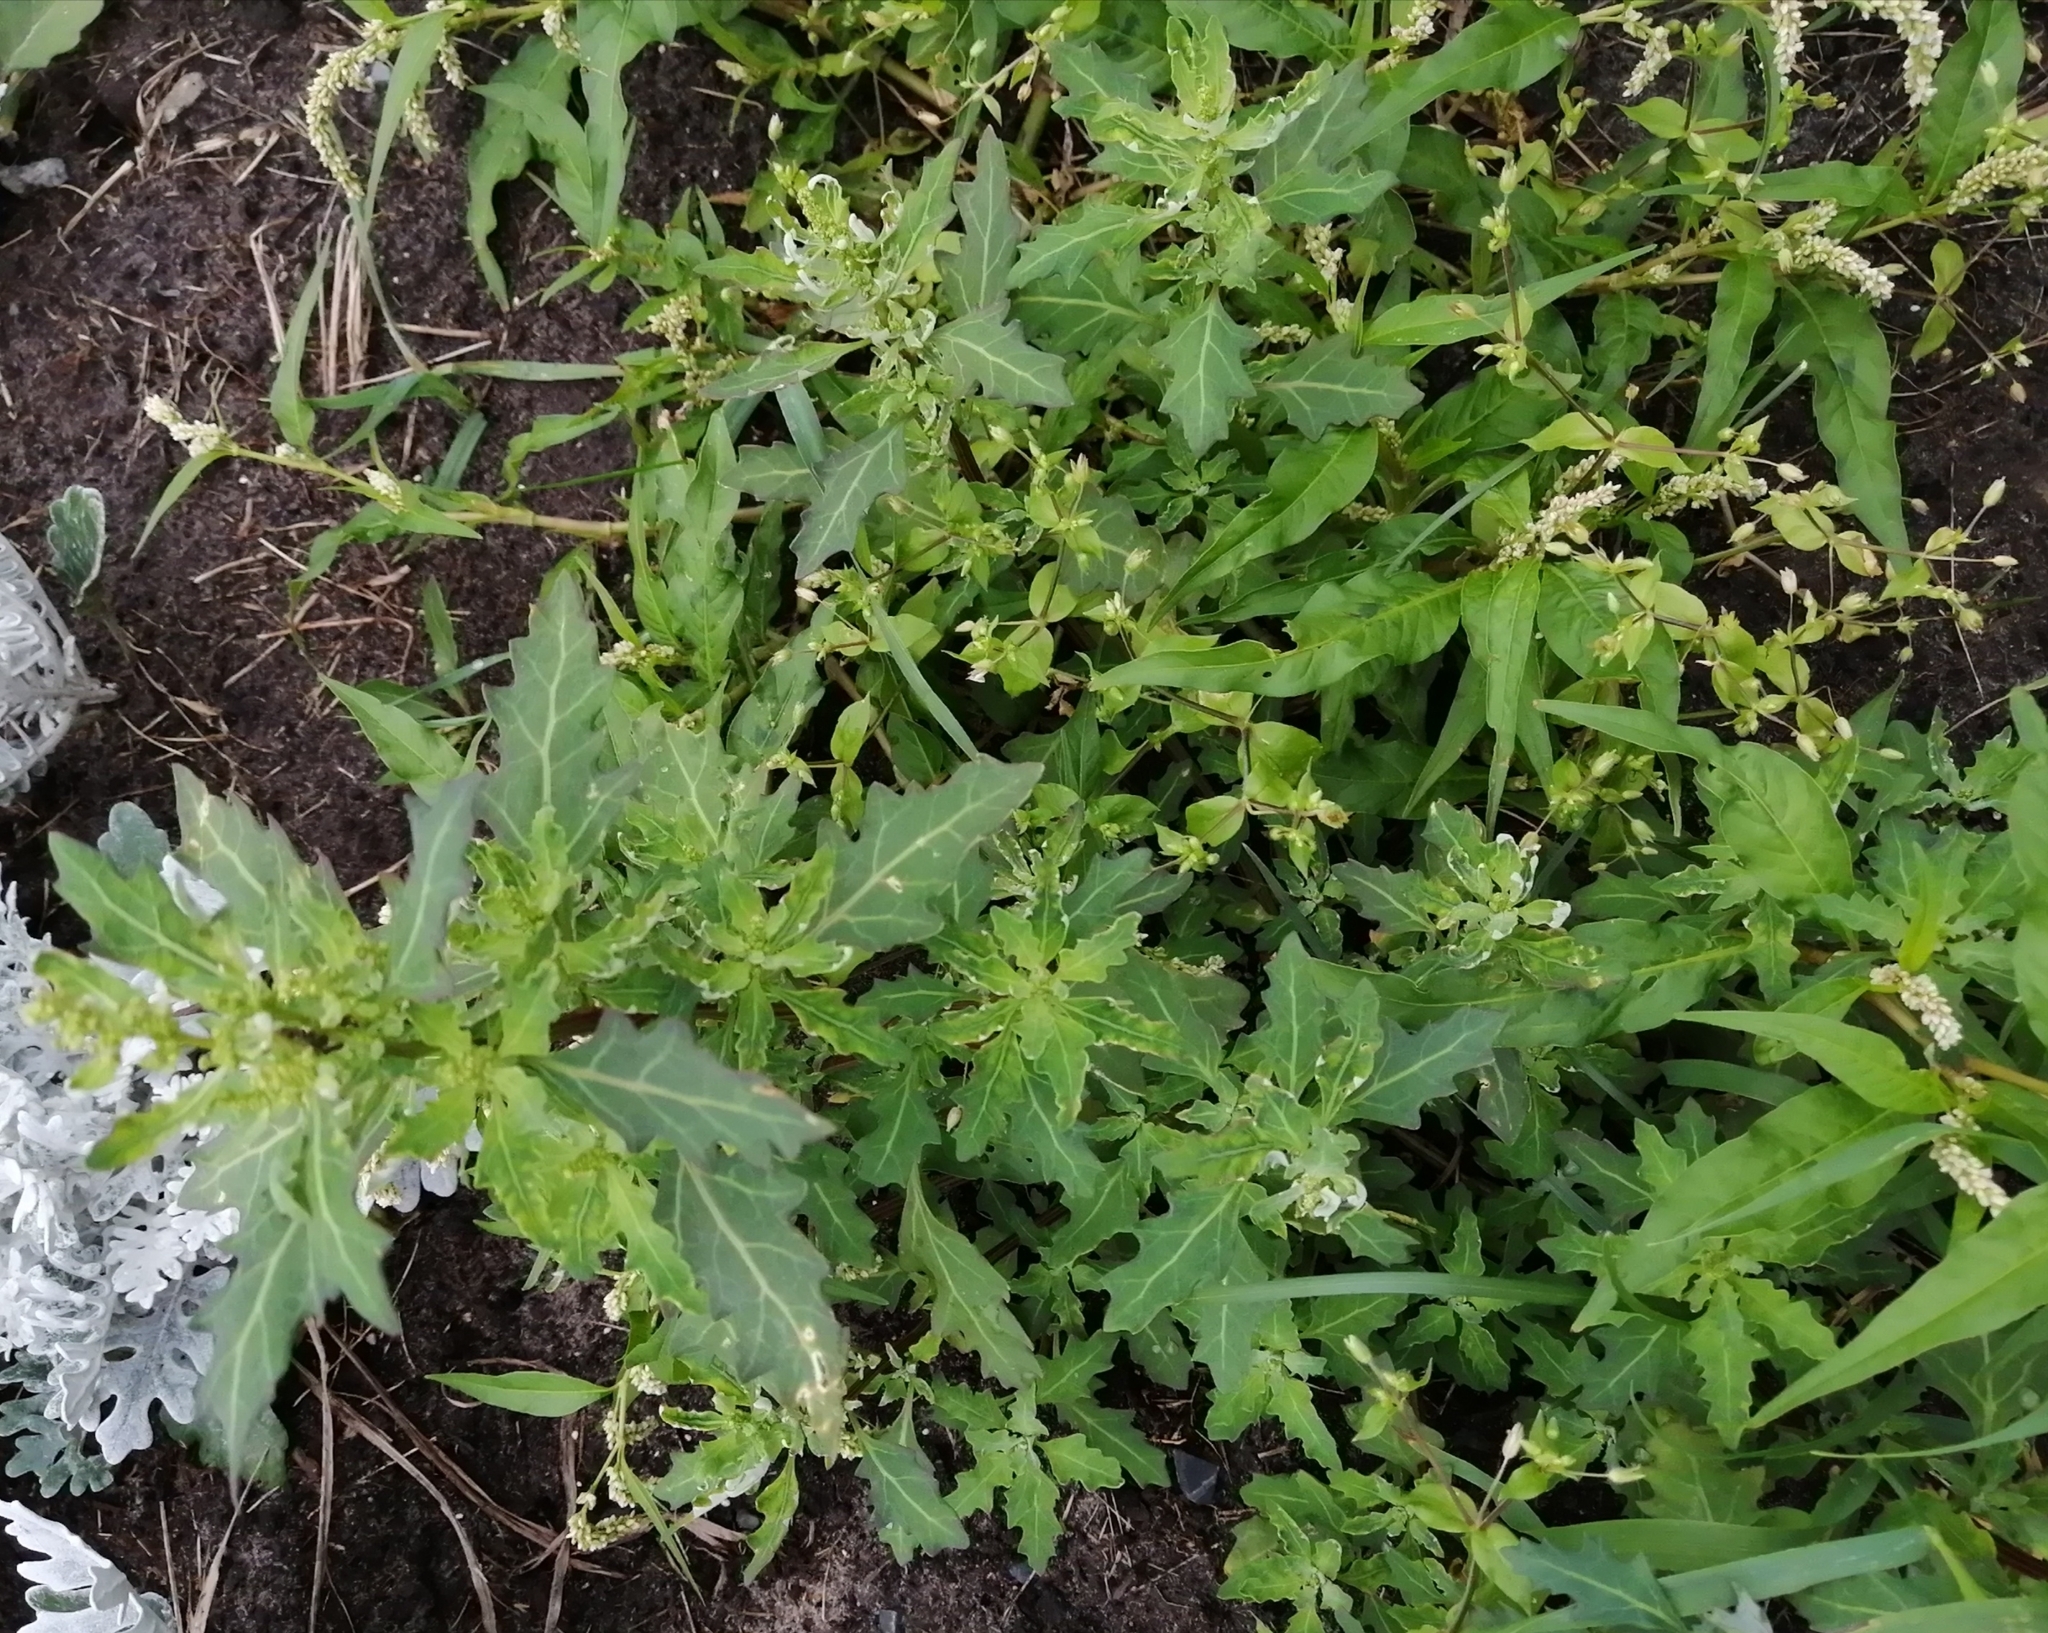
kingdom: Plantae
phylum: Tracheophyta
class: Magnoliopsida
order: Caryophyllales
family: Amaranthaceae
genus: Oxybasis
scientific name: Oxybasis glauca
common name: Glaucous goosefoot
